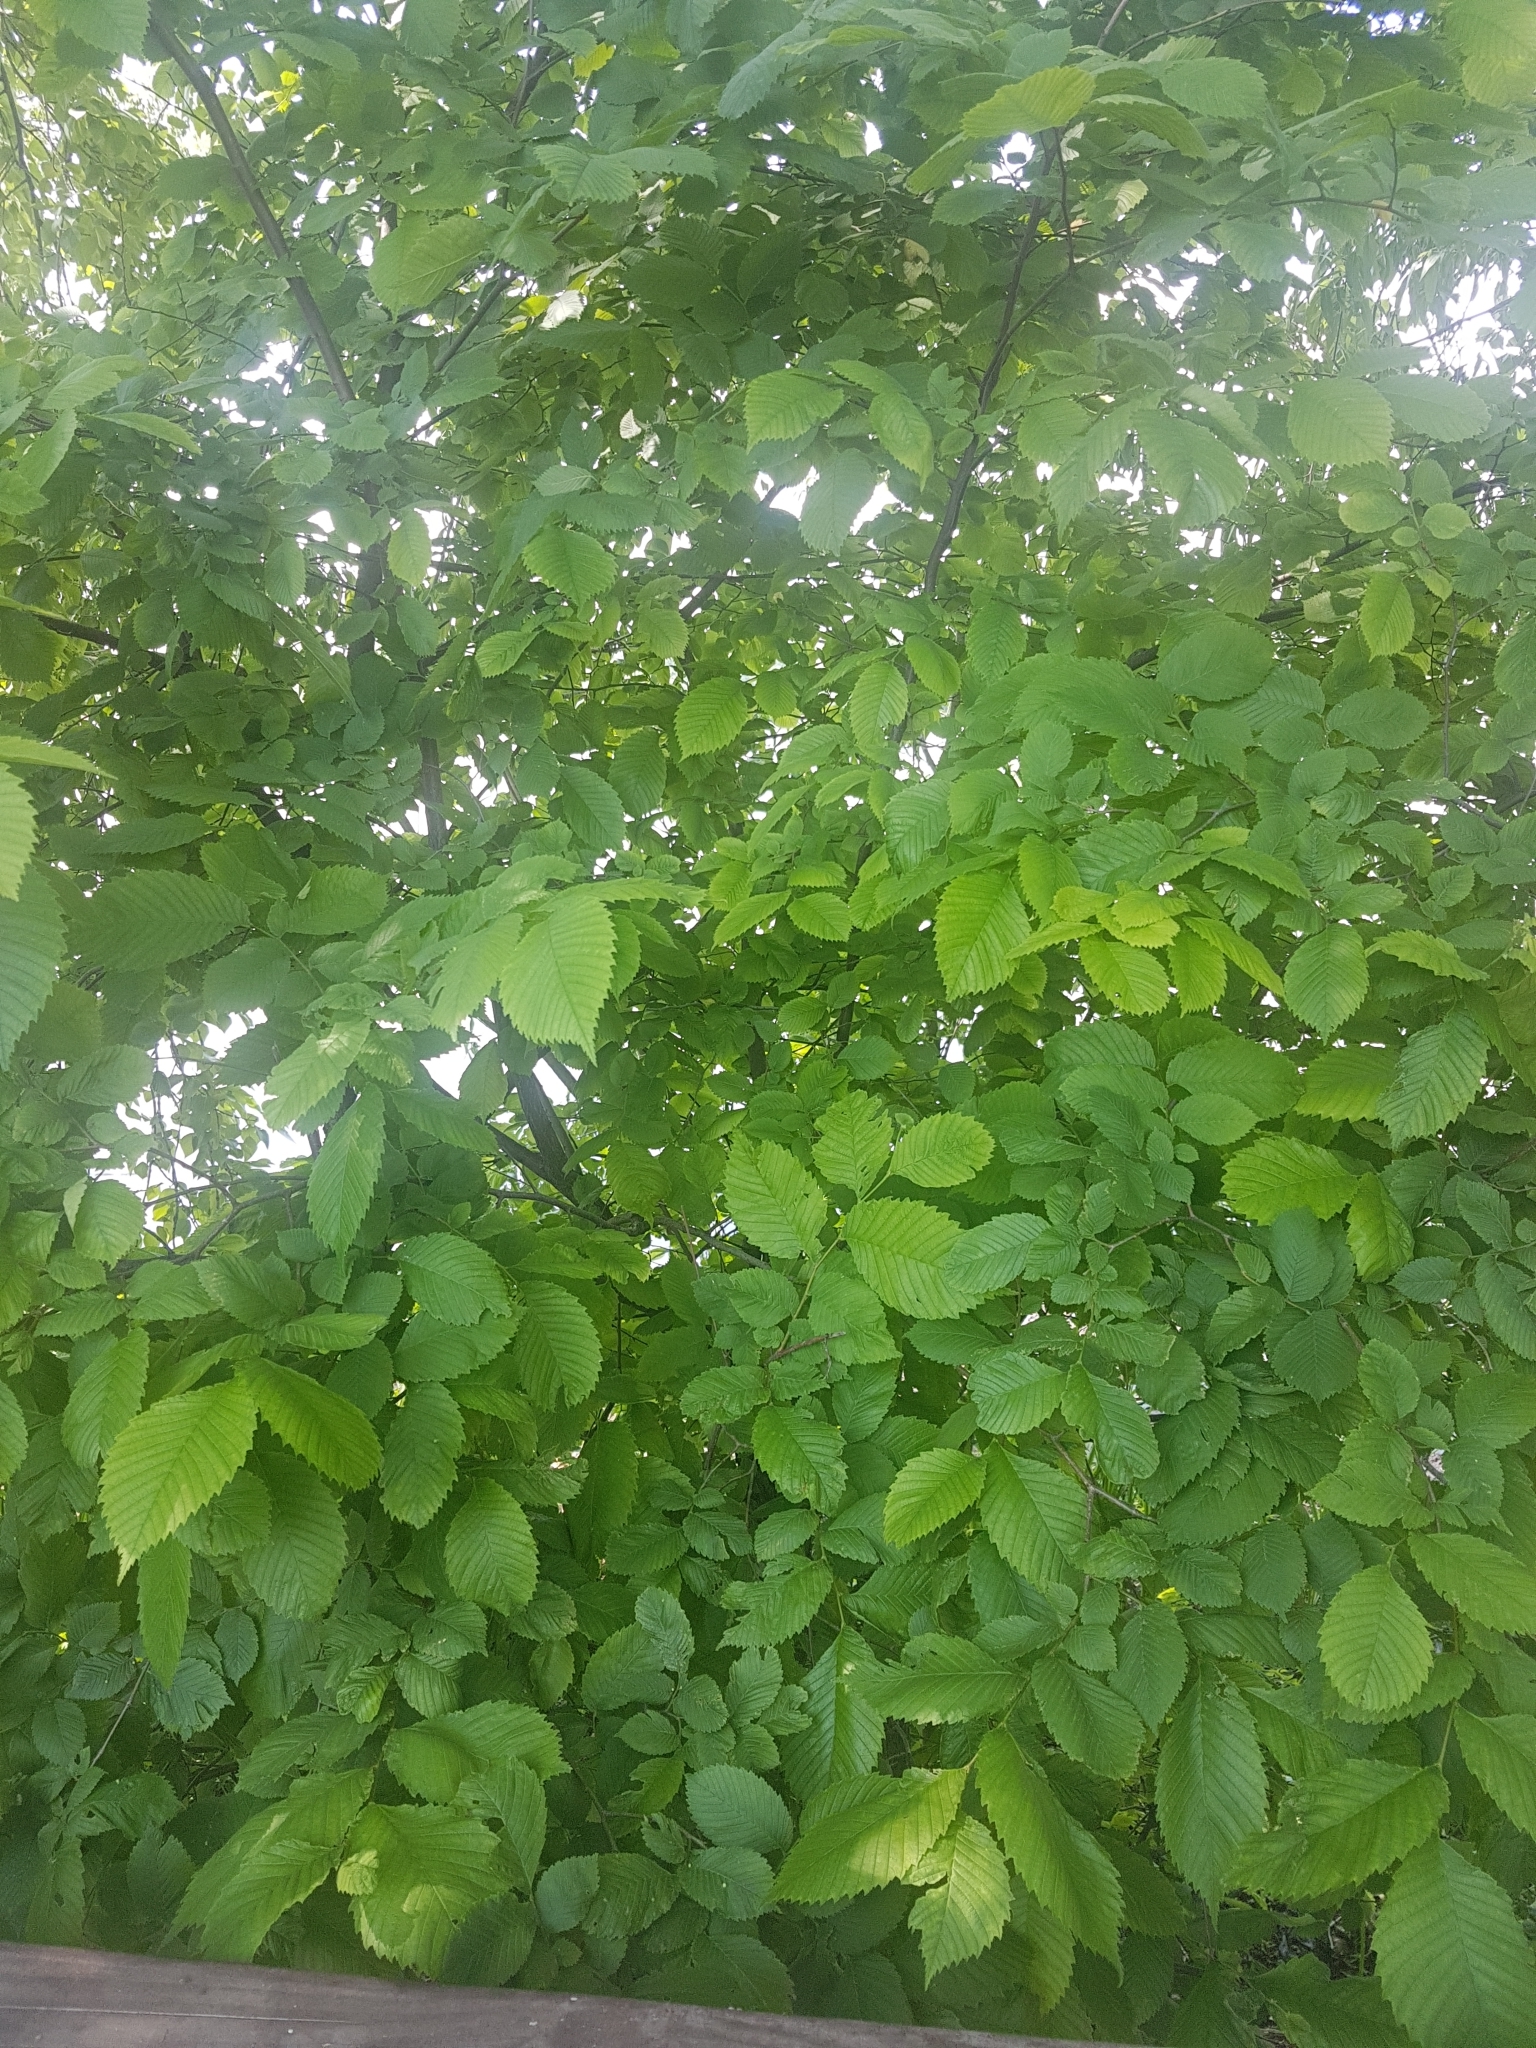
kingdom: Plantae
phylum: Tracheophyta
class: Magnoliopsida
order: Rosales
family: Ulmaceae
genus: Ulmus
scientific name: Ulmus laevis
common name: European white-elm
